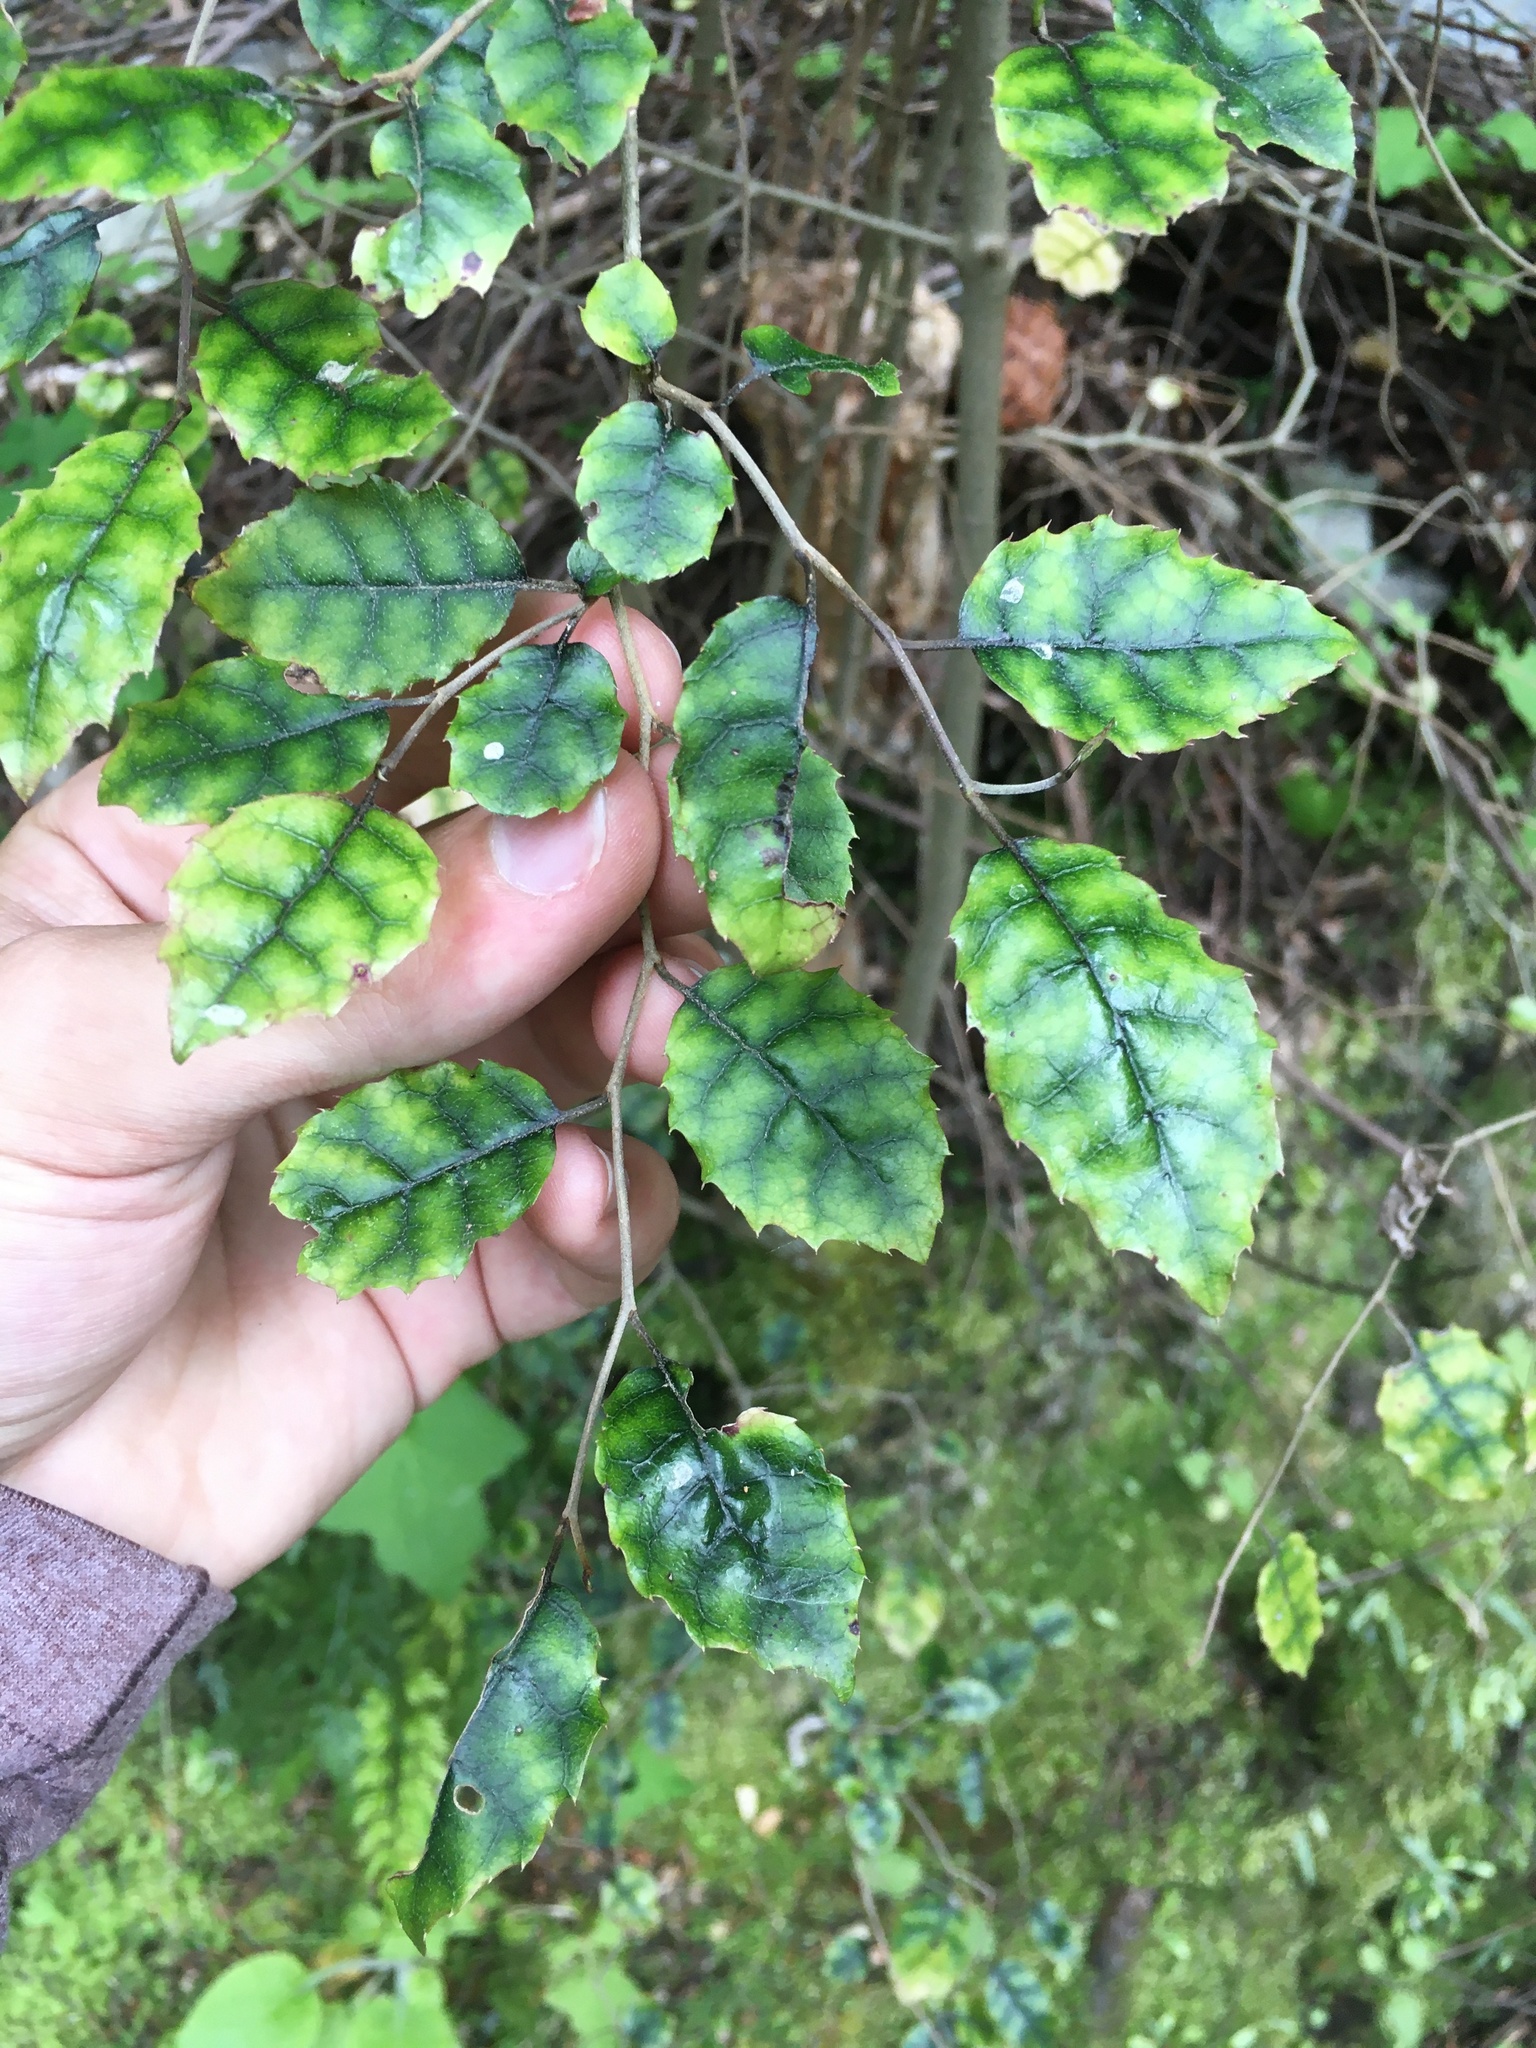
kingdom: Plantae
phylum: Tracheophyta
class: Magnoliopsida
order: Asterales
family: Rousseaceae
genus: Carpodetus
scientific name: Carpodetus serratus
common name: White mapau
